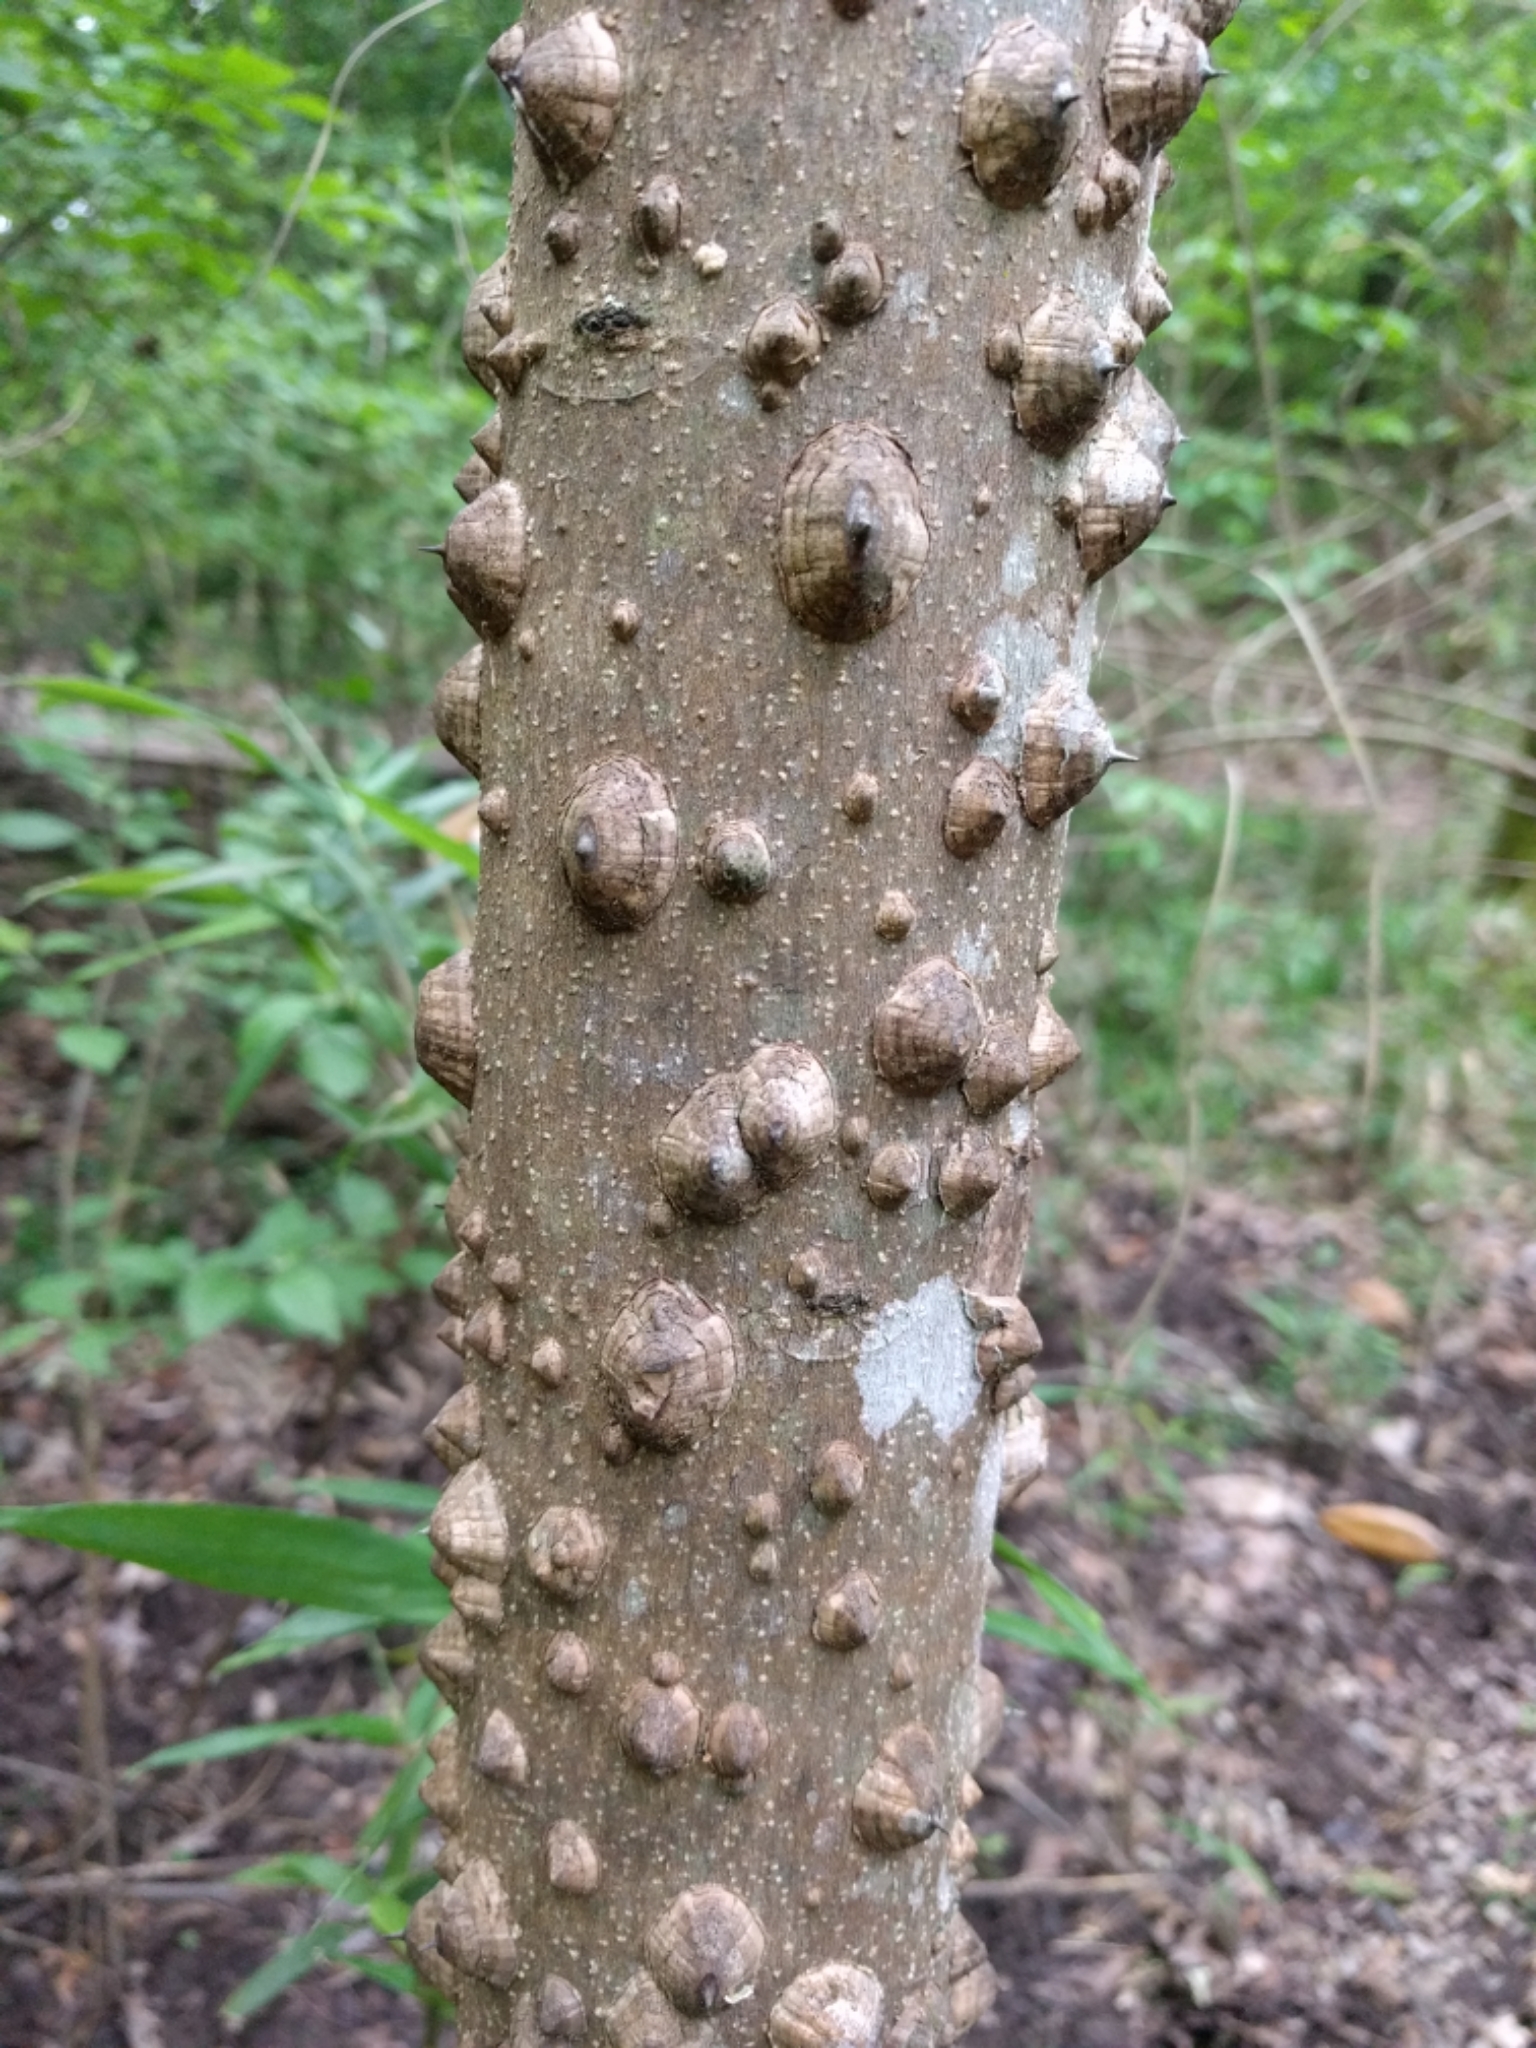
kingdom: Plantae
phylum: Tracheophyta
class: Magnoliopsida
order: Sapindales
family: Rutaceae
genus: Zanthoxylum
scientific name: Zanthoxylum clava-herculis
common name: Hercules'-club
